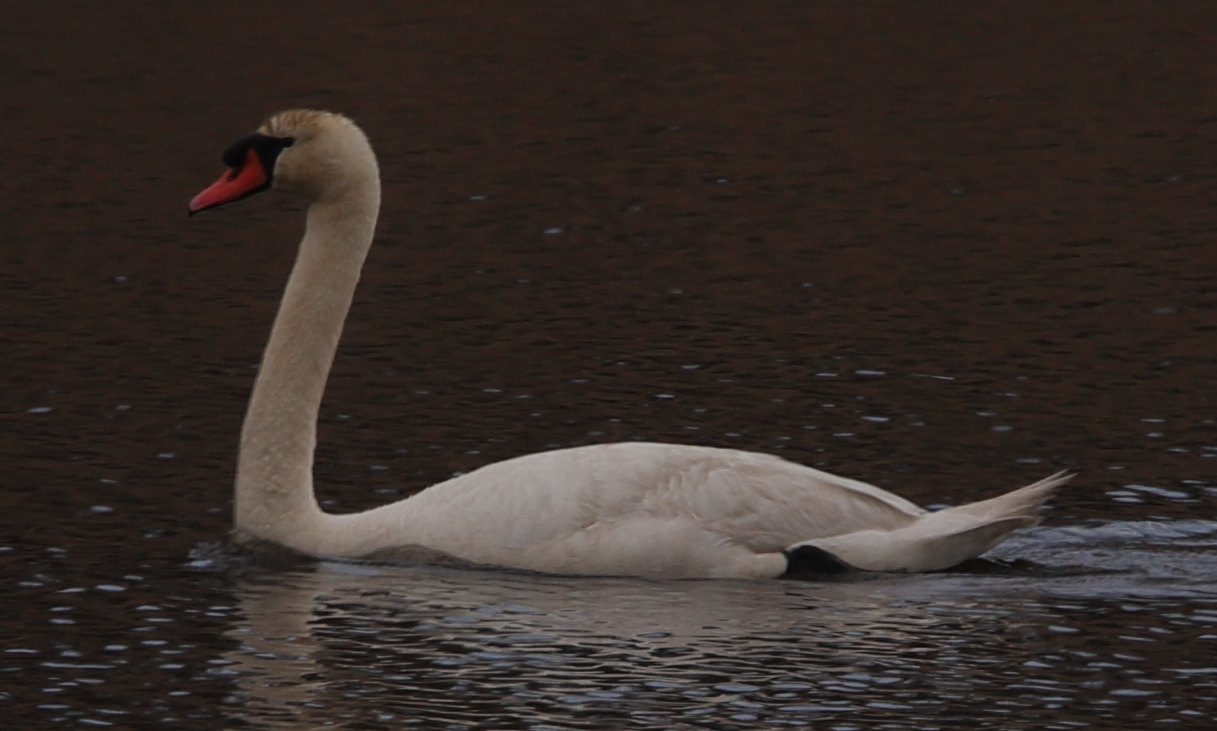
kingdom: Animalia
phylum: Chordata
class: Aves
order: Anseriformes
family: Anatidae
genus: Cygnus
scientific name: Cygnus olor
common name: Mute swan
